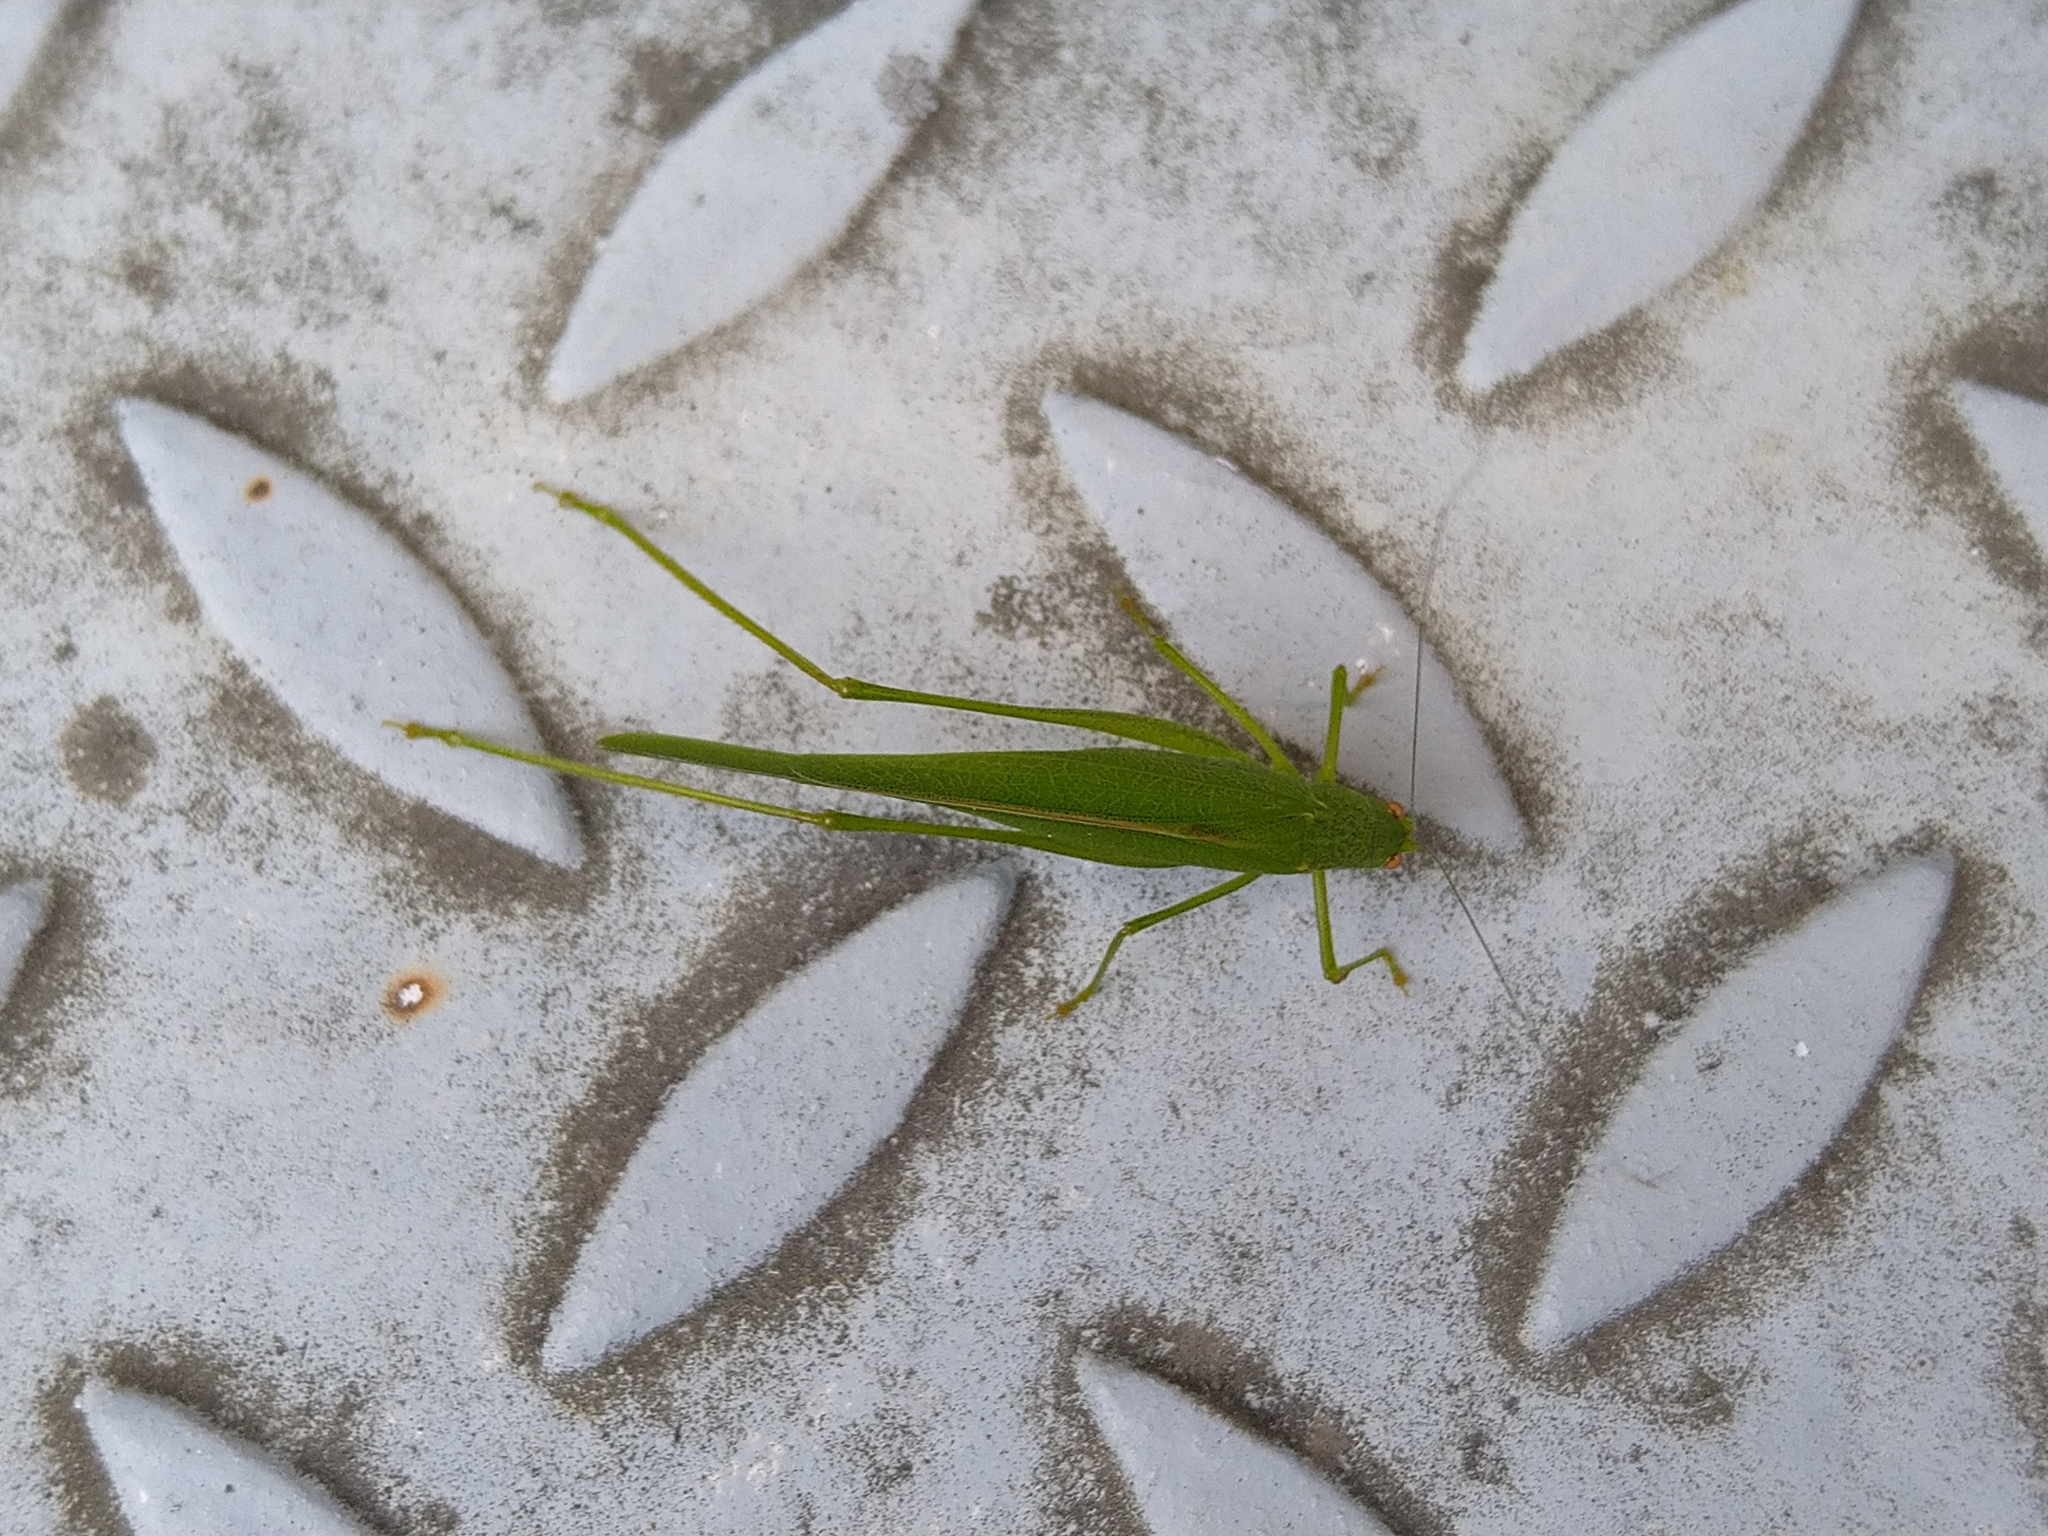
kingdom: Animalia
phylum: Arthropoda
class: Insecta
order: Orthoptera
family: Tettigoniidae
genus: Phaneroptera
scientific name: Phaneroptera nana
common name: Southern sickle bush-cricket
